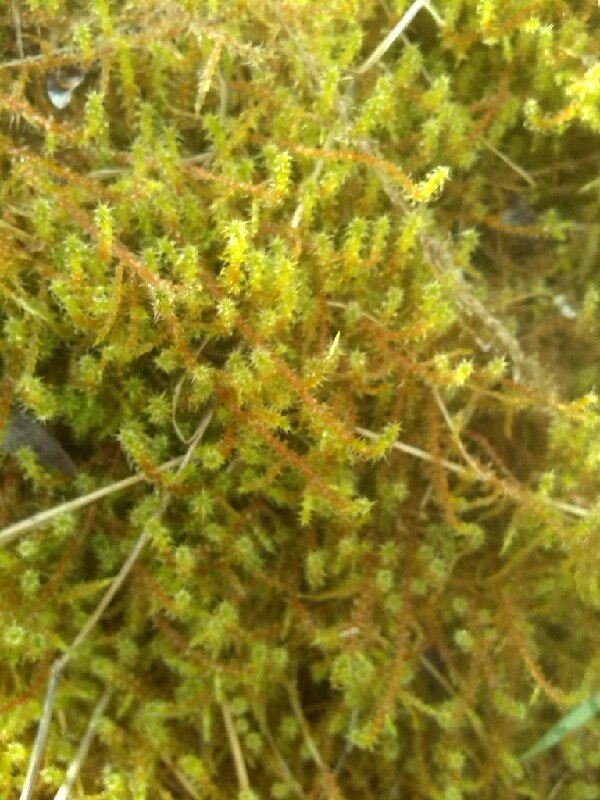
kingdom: Plantae
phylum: Bryophyta
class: Bryopsida
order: Hypnales
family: Hylocomiaceae
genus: Rhytidiadelphus
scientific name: Rhytidiadelphus squarrosus
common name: Springy turf-moss
